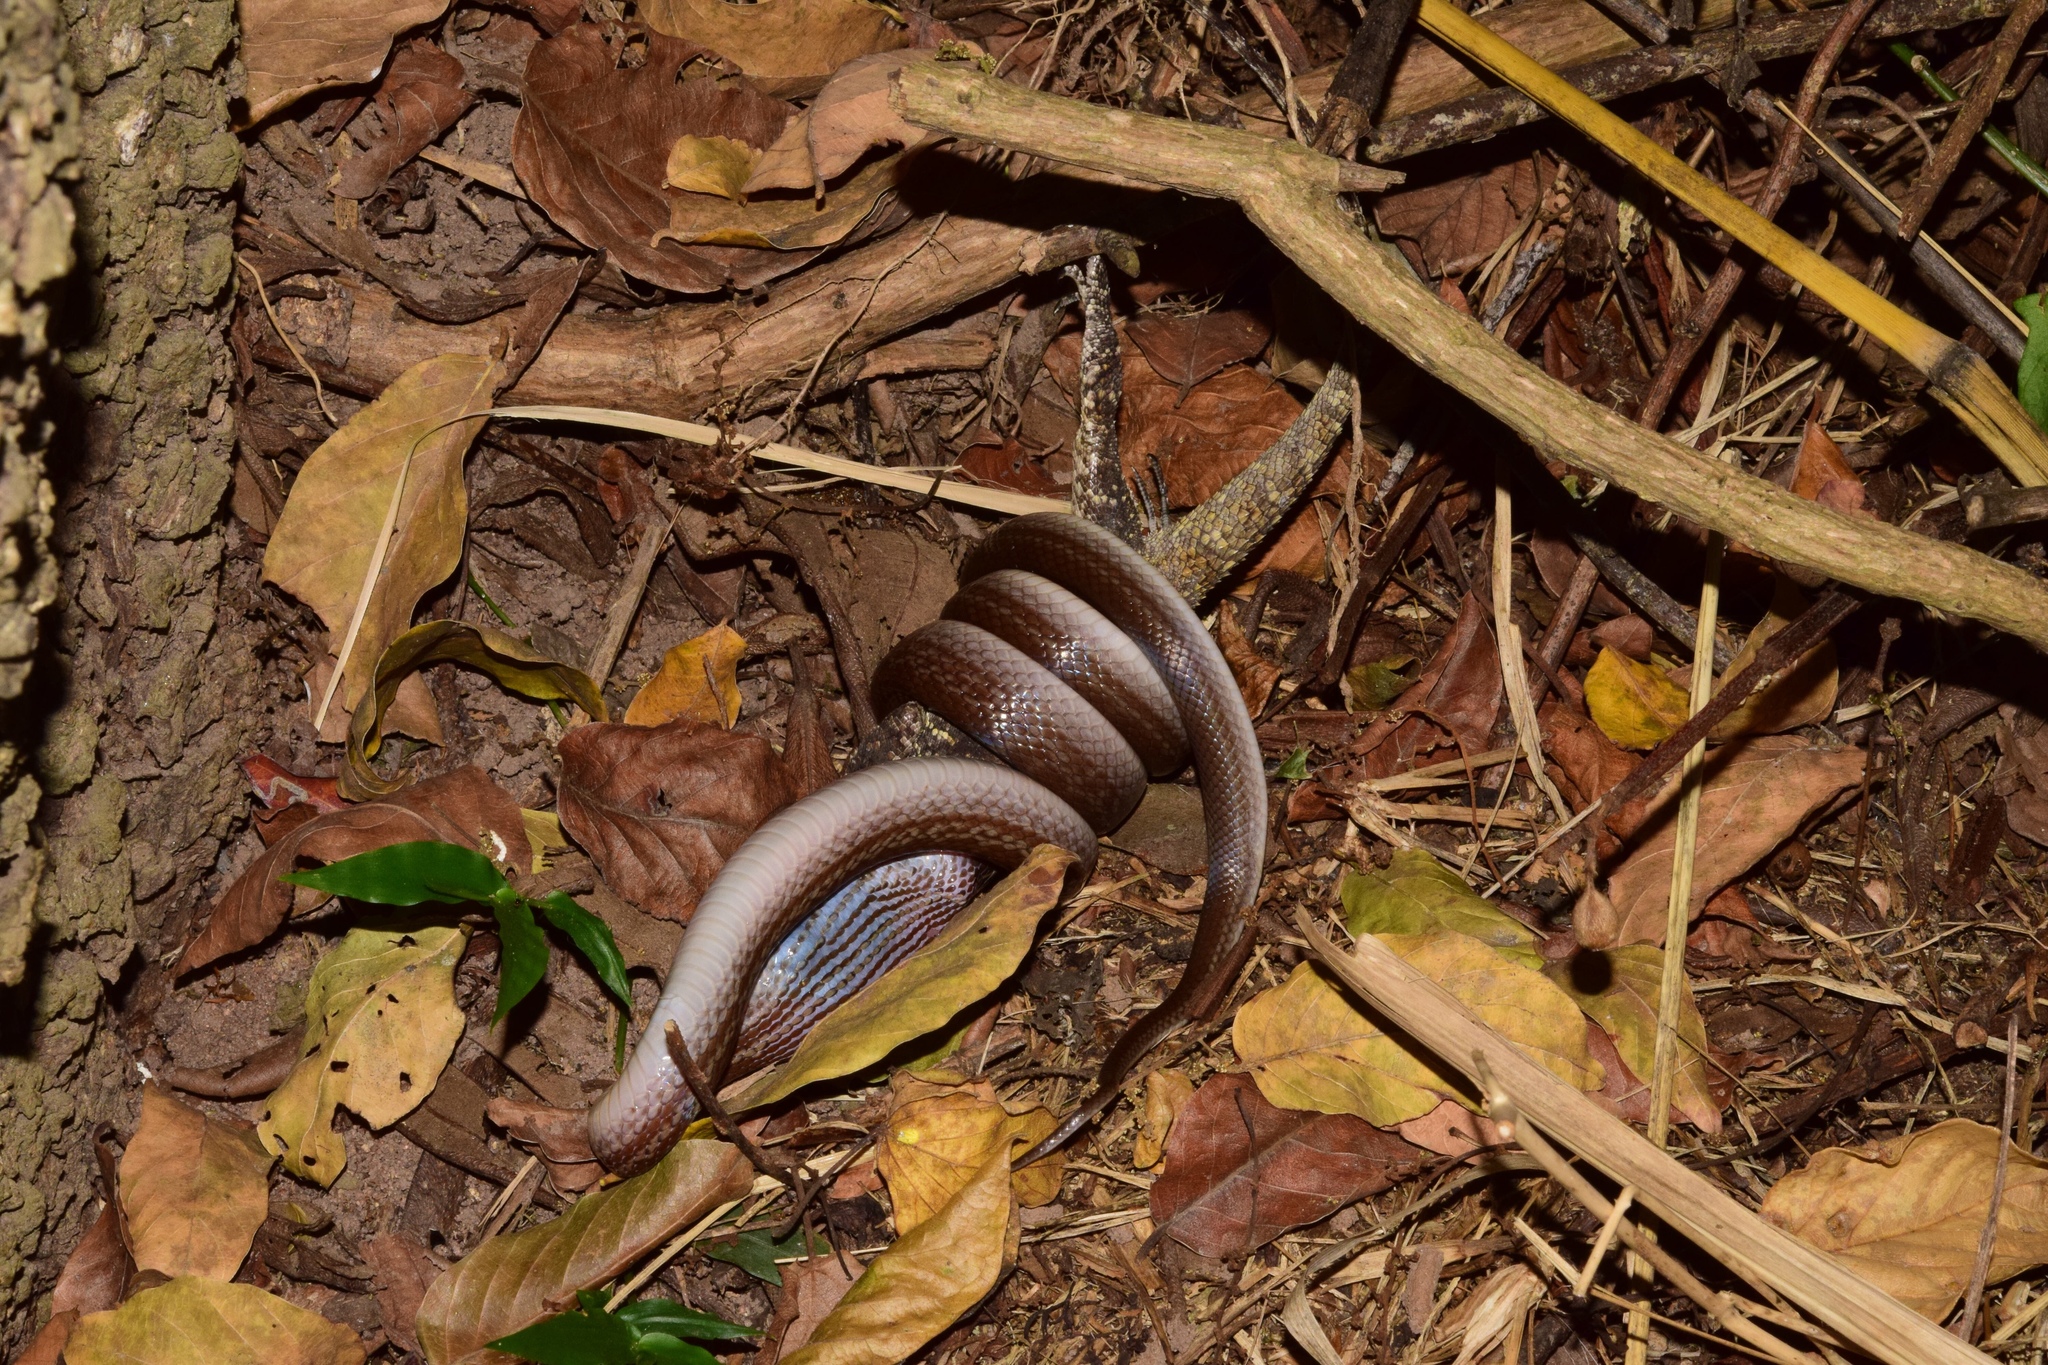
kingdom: Animalia
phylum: Chordata
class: Squamata
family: Lamprophiidae
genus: Boaedon
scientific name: Boaedon capensis
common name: Brown house snake
